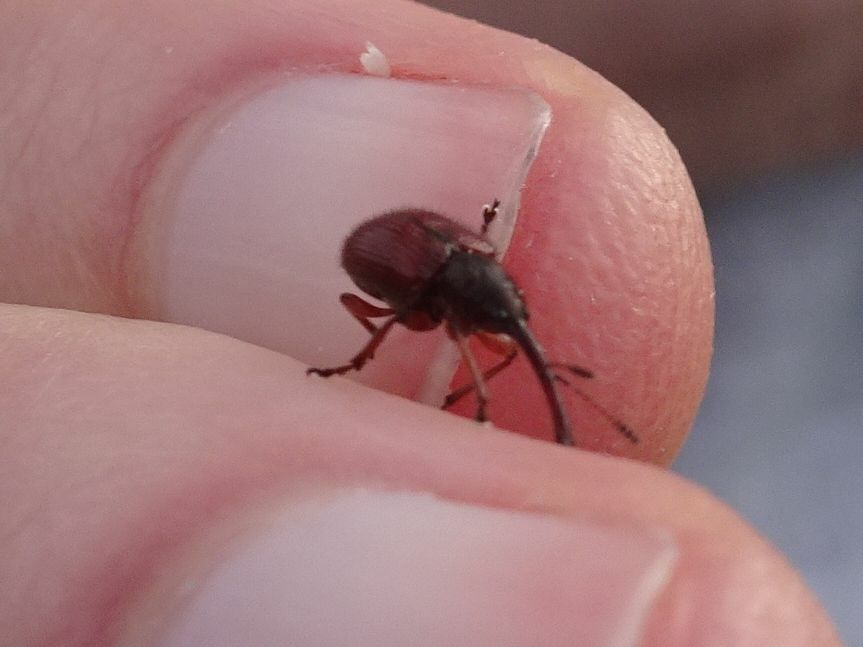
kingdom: Animalia
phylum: Arthropoda
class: Insecta
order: Coleoptera
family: Rhynchitidae
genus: Tatianaerhynchites
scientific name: Tatianaerhynchites aequatus
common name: Apple fruit rhynchites
